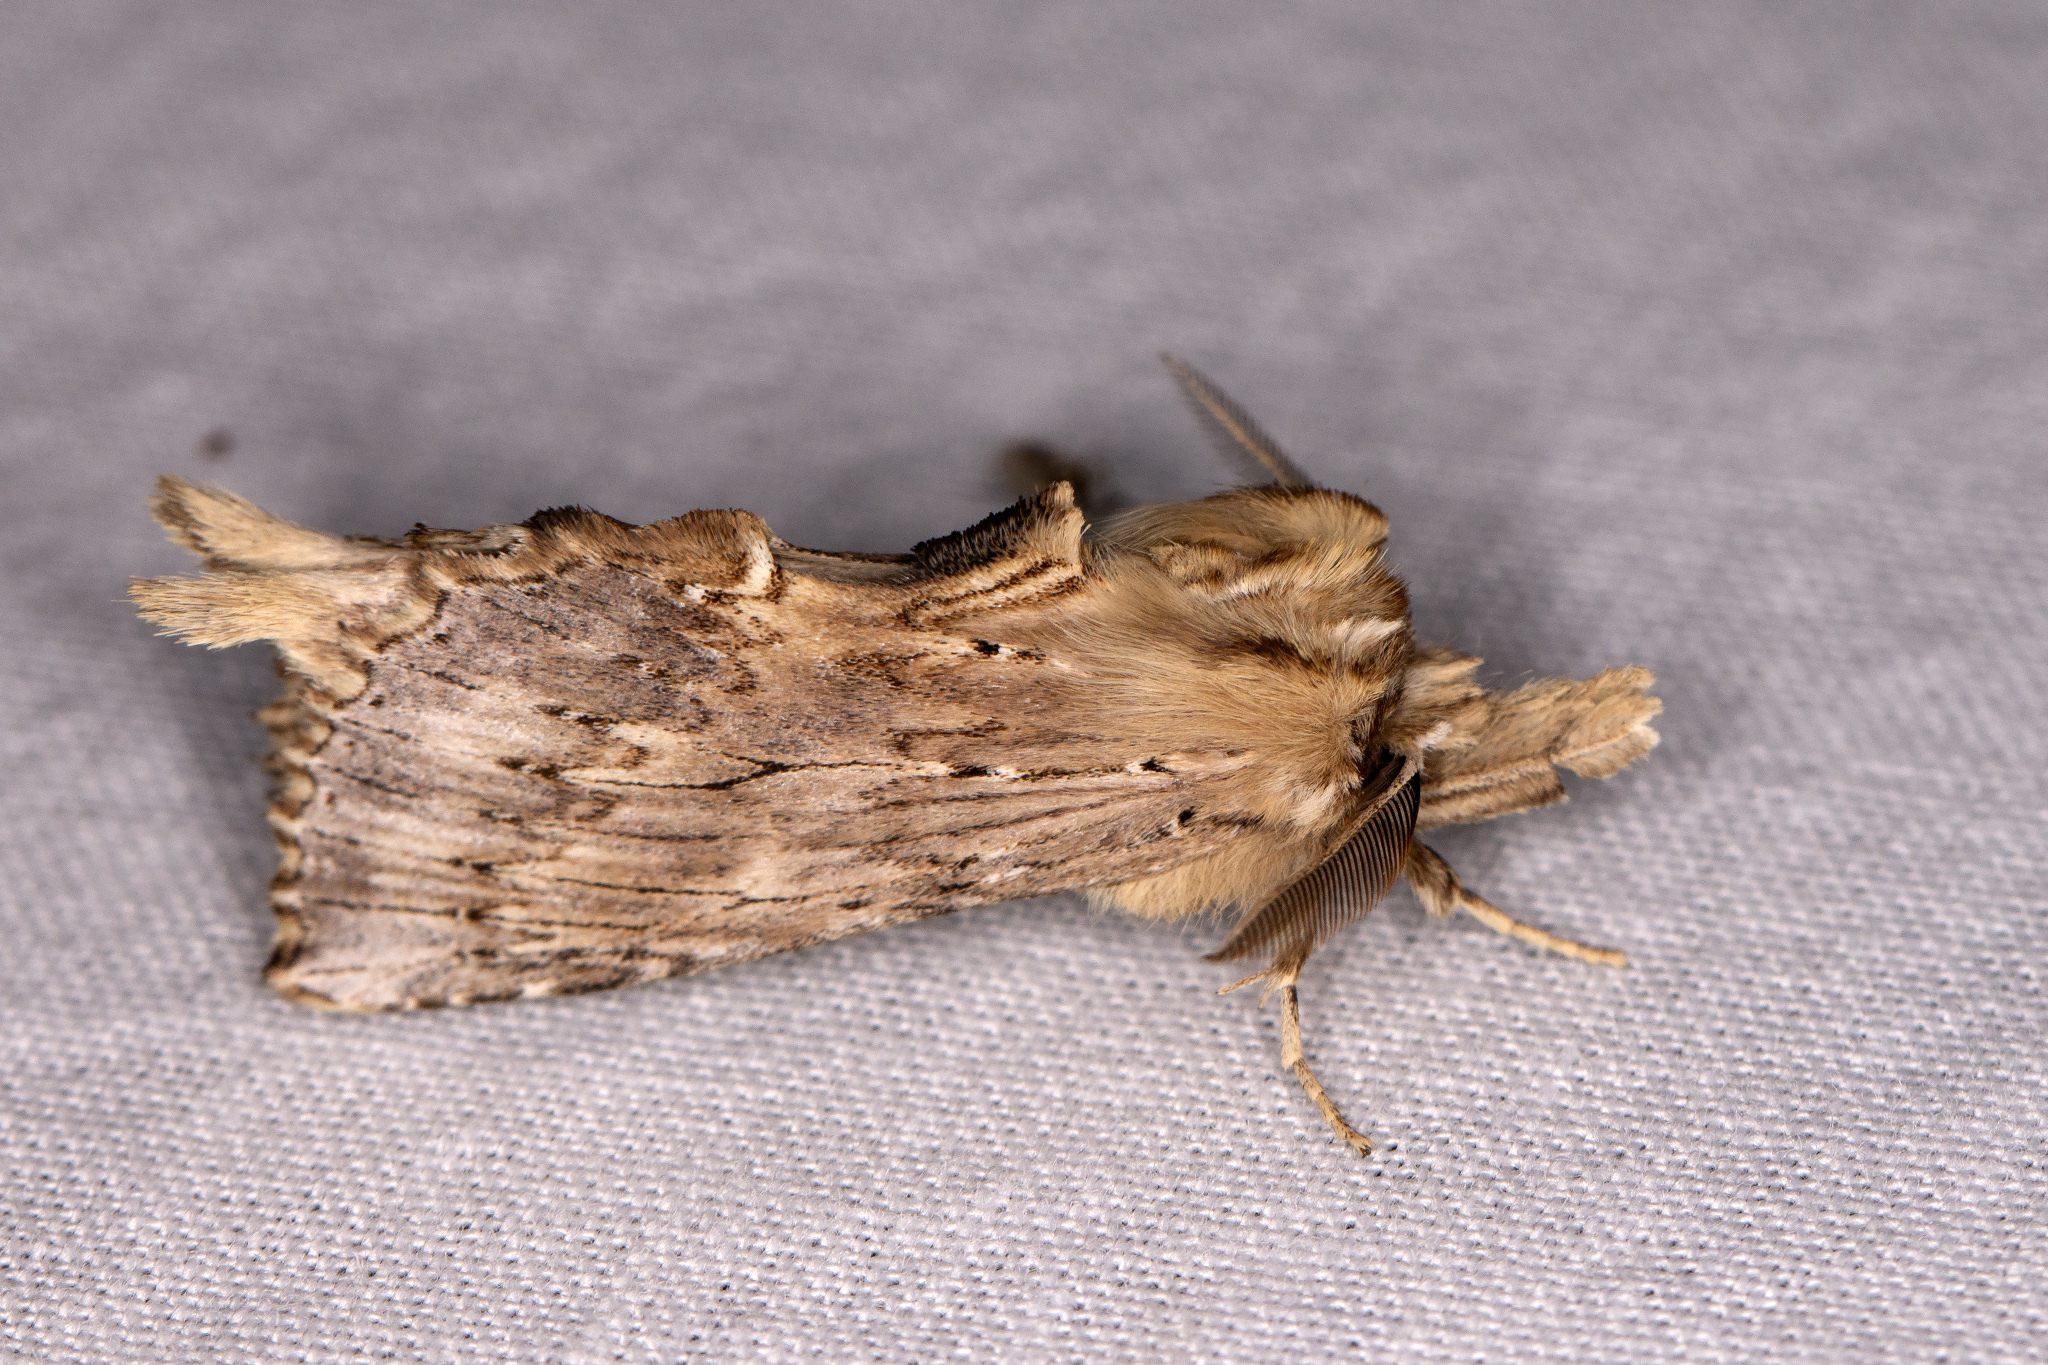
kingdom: Animalia
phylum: Arthropoda
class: Insecta
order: Lepidoptera
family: Notodontidae
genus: Pterostoma
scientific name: Pterostoma palpina
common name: Pale prominent
